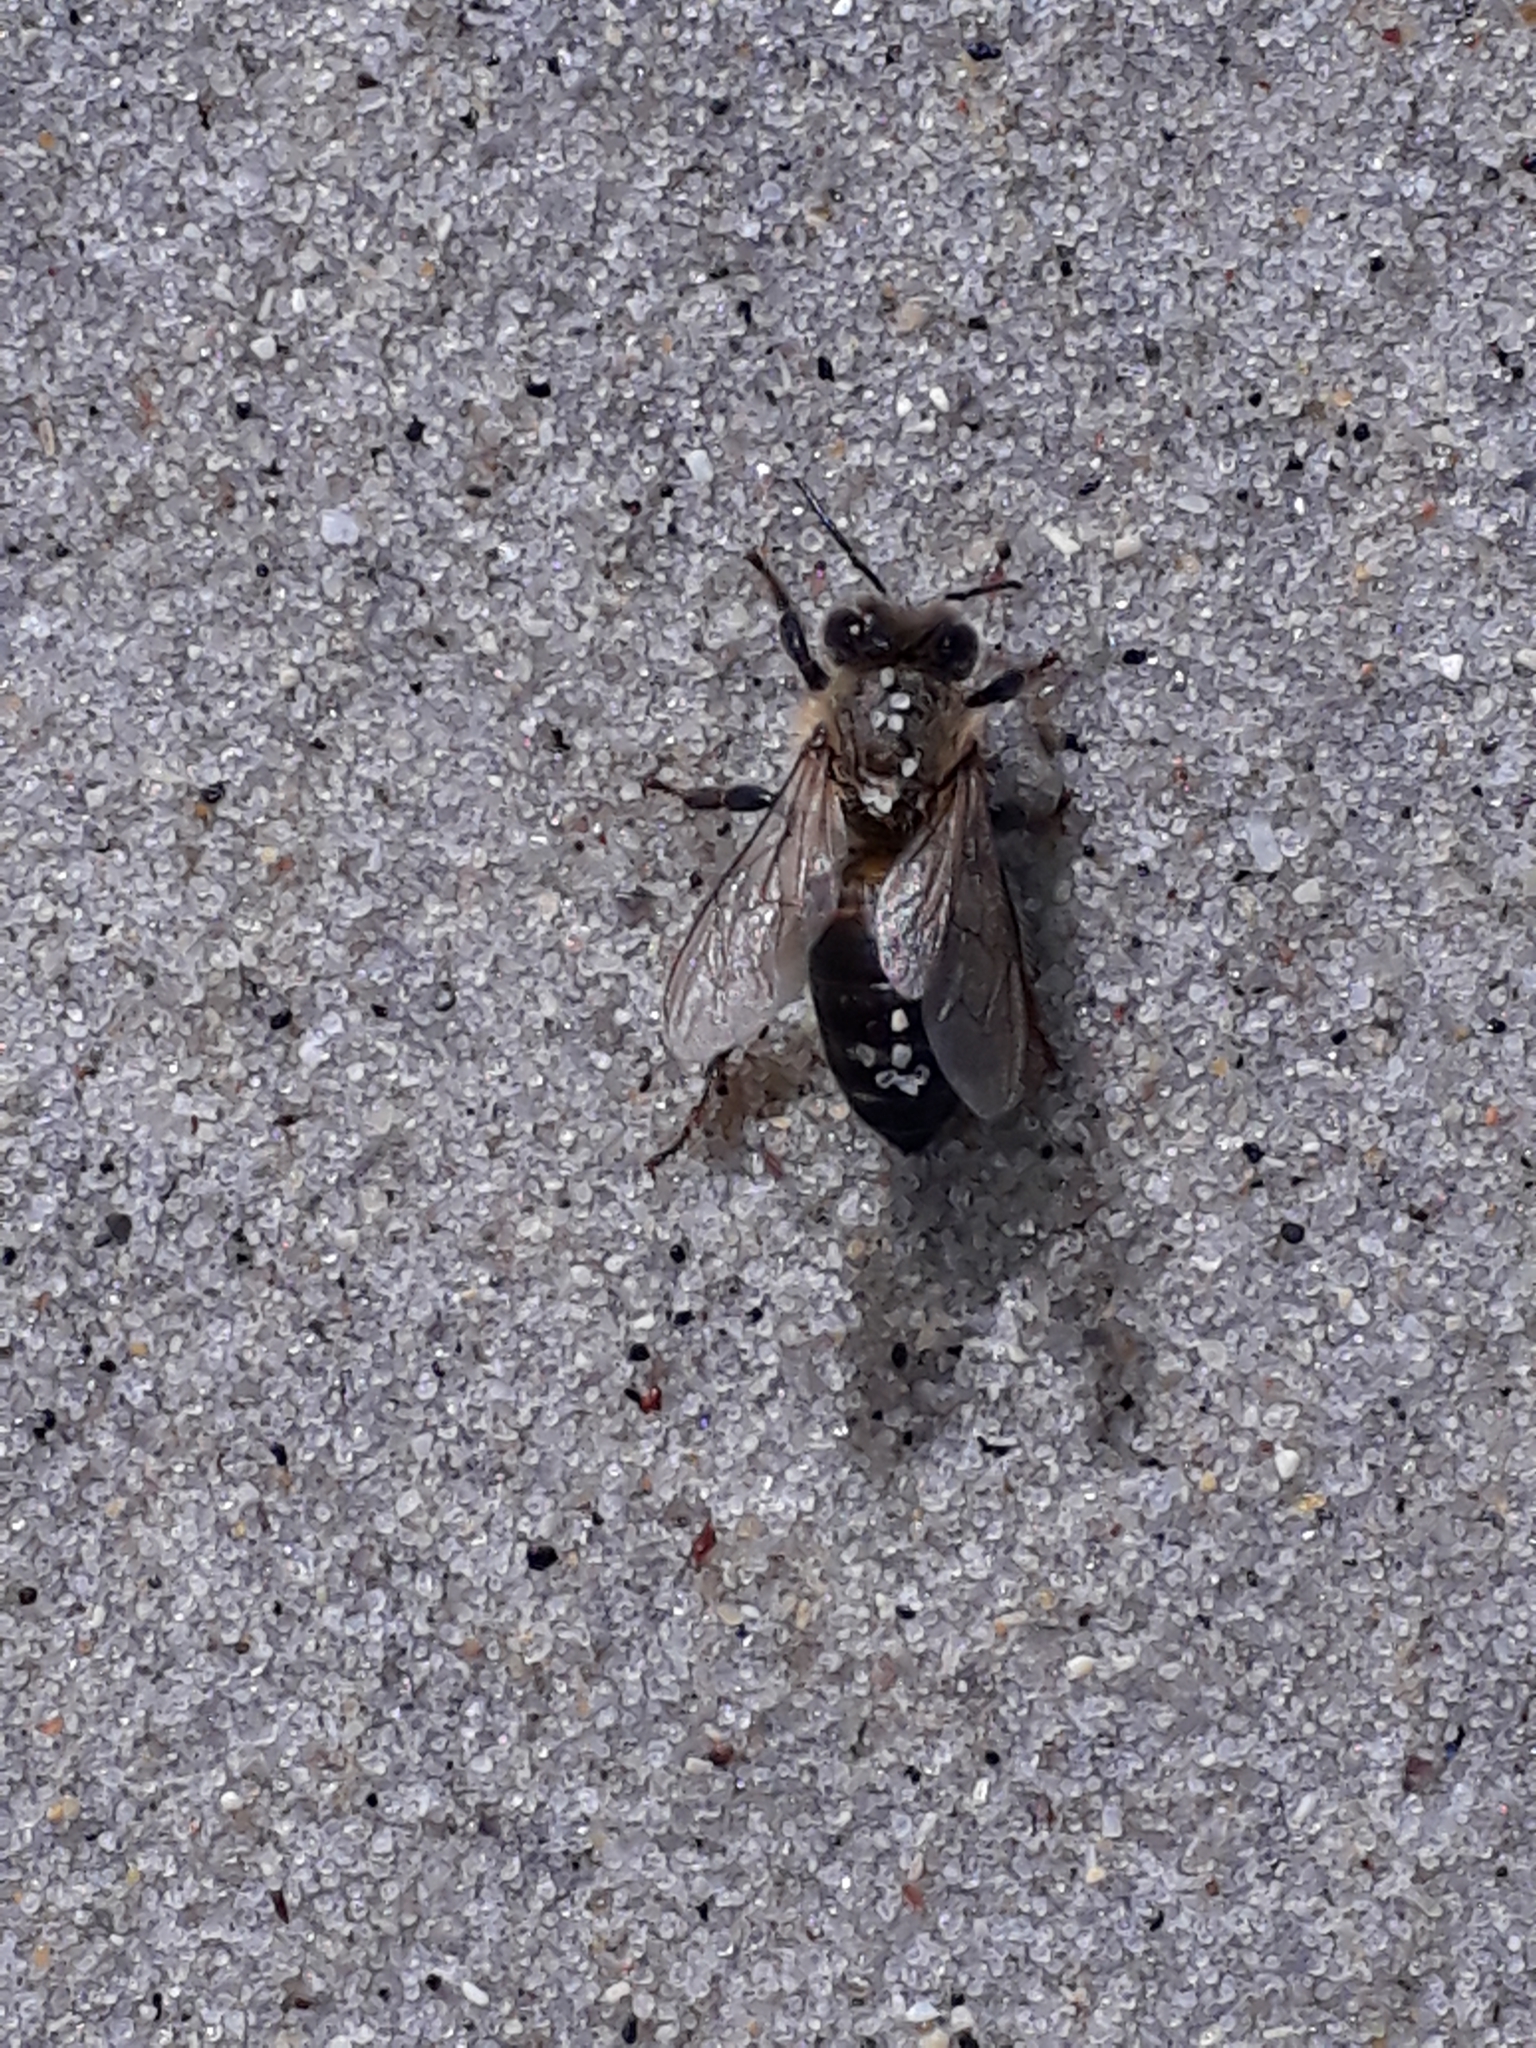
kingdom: Animalia
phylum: Arthropoda
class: Insecta
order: Hymenoptera
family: Apidae
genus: Apis
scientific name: Apis mellifera
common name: Honey bee
